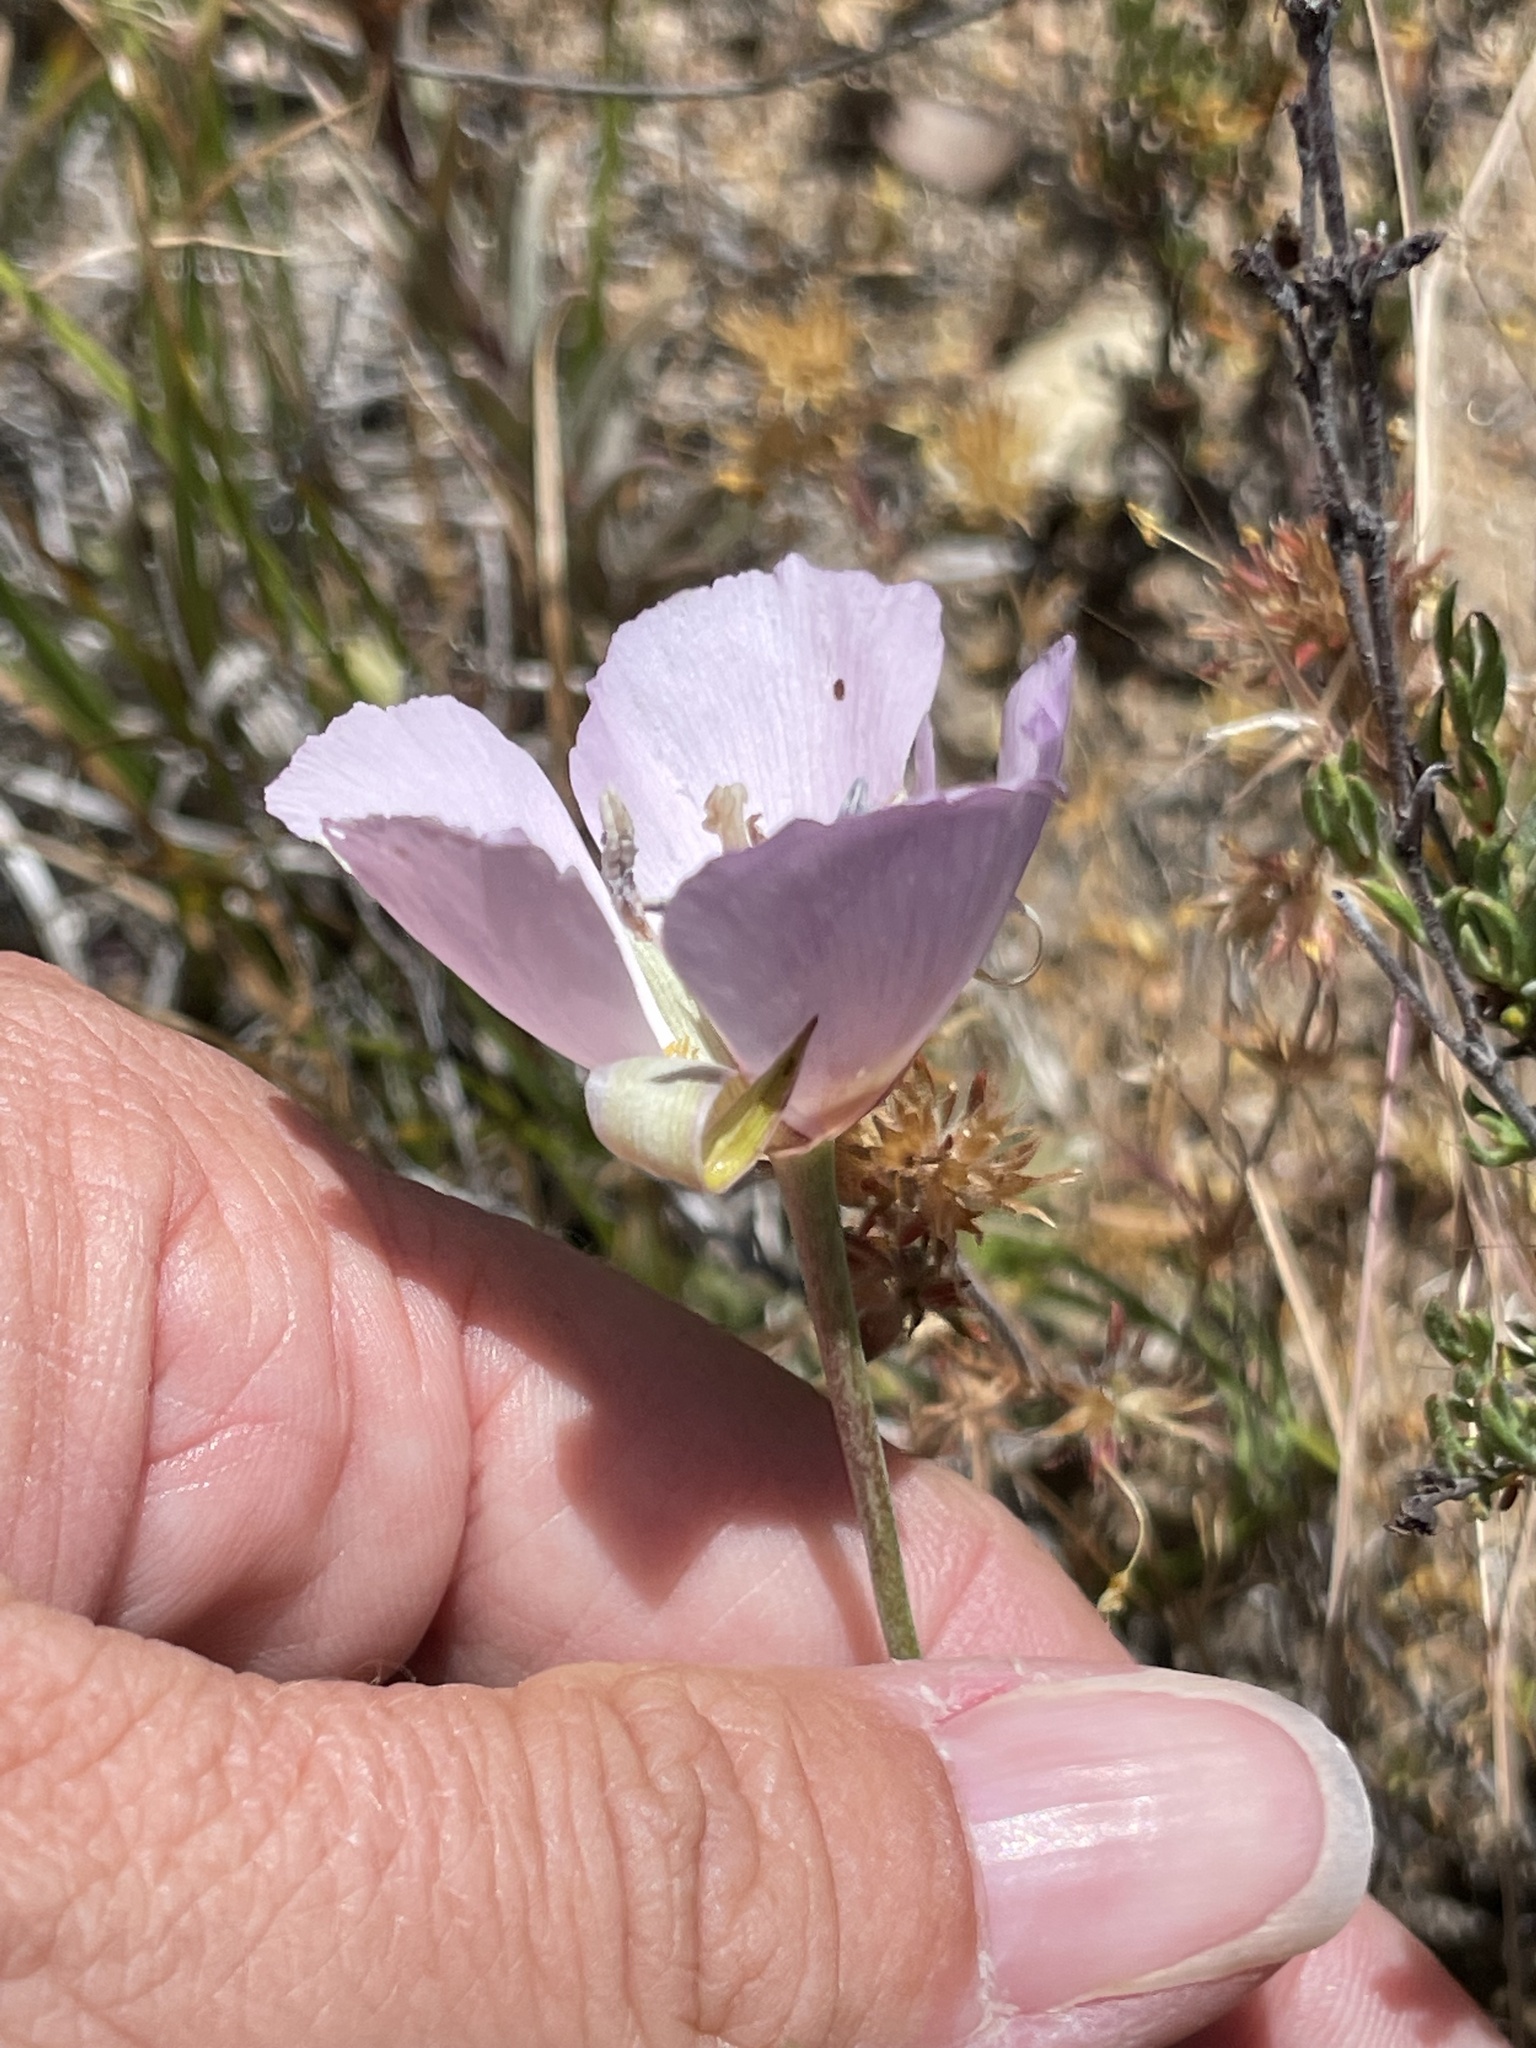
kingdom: Plantae
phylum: Tracheophyta
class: Liliopsida
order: Liliales
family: Liliaceae
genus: Calochortus
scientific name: Calochortus palmeri
